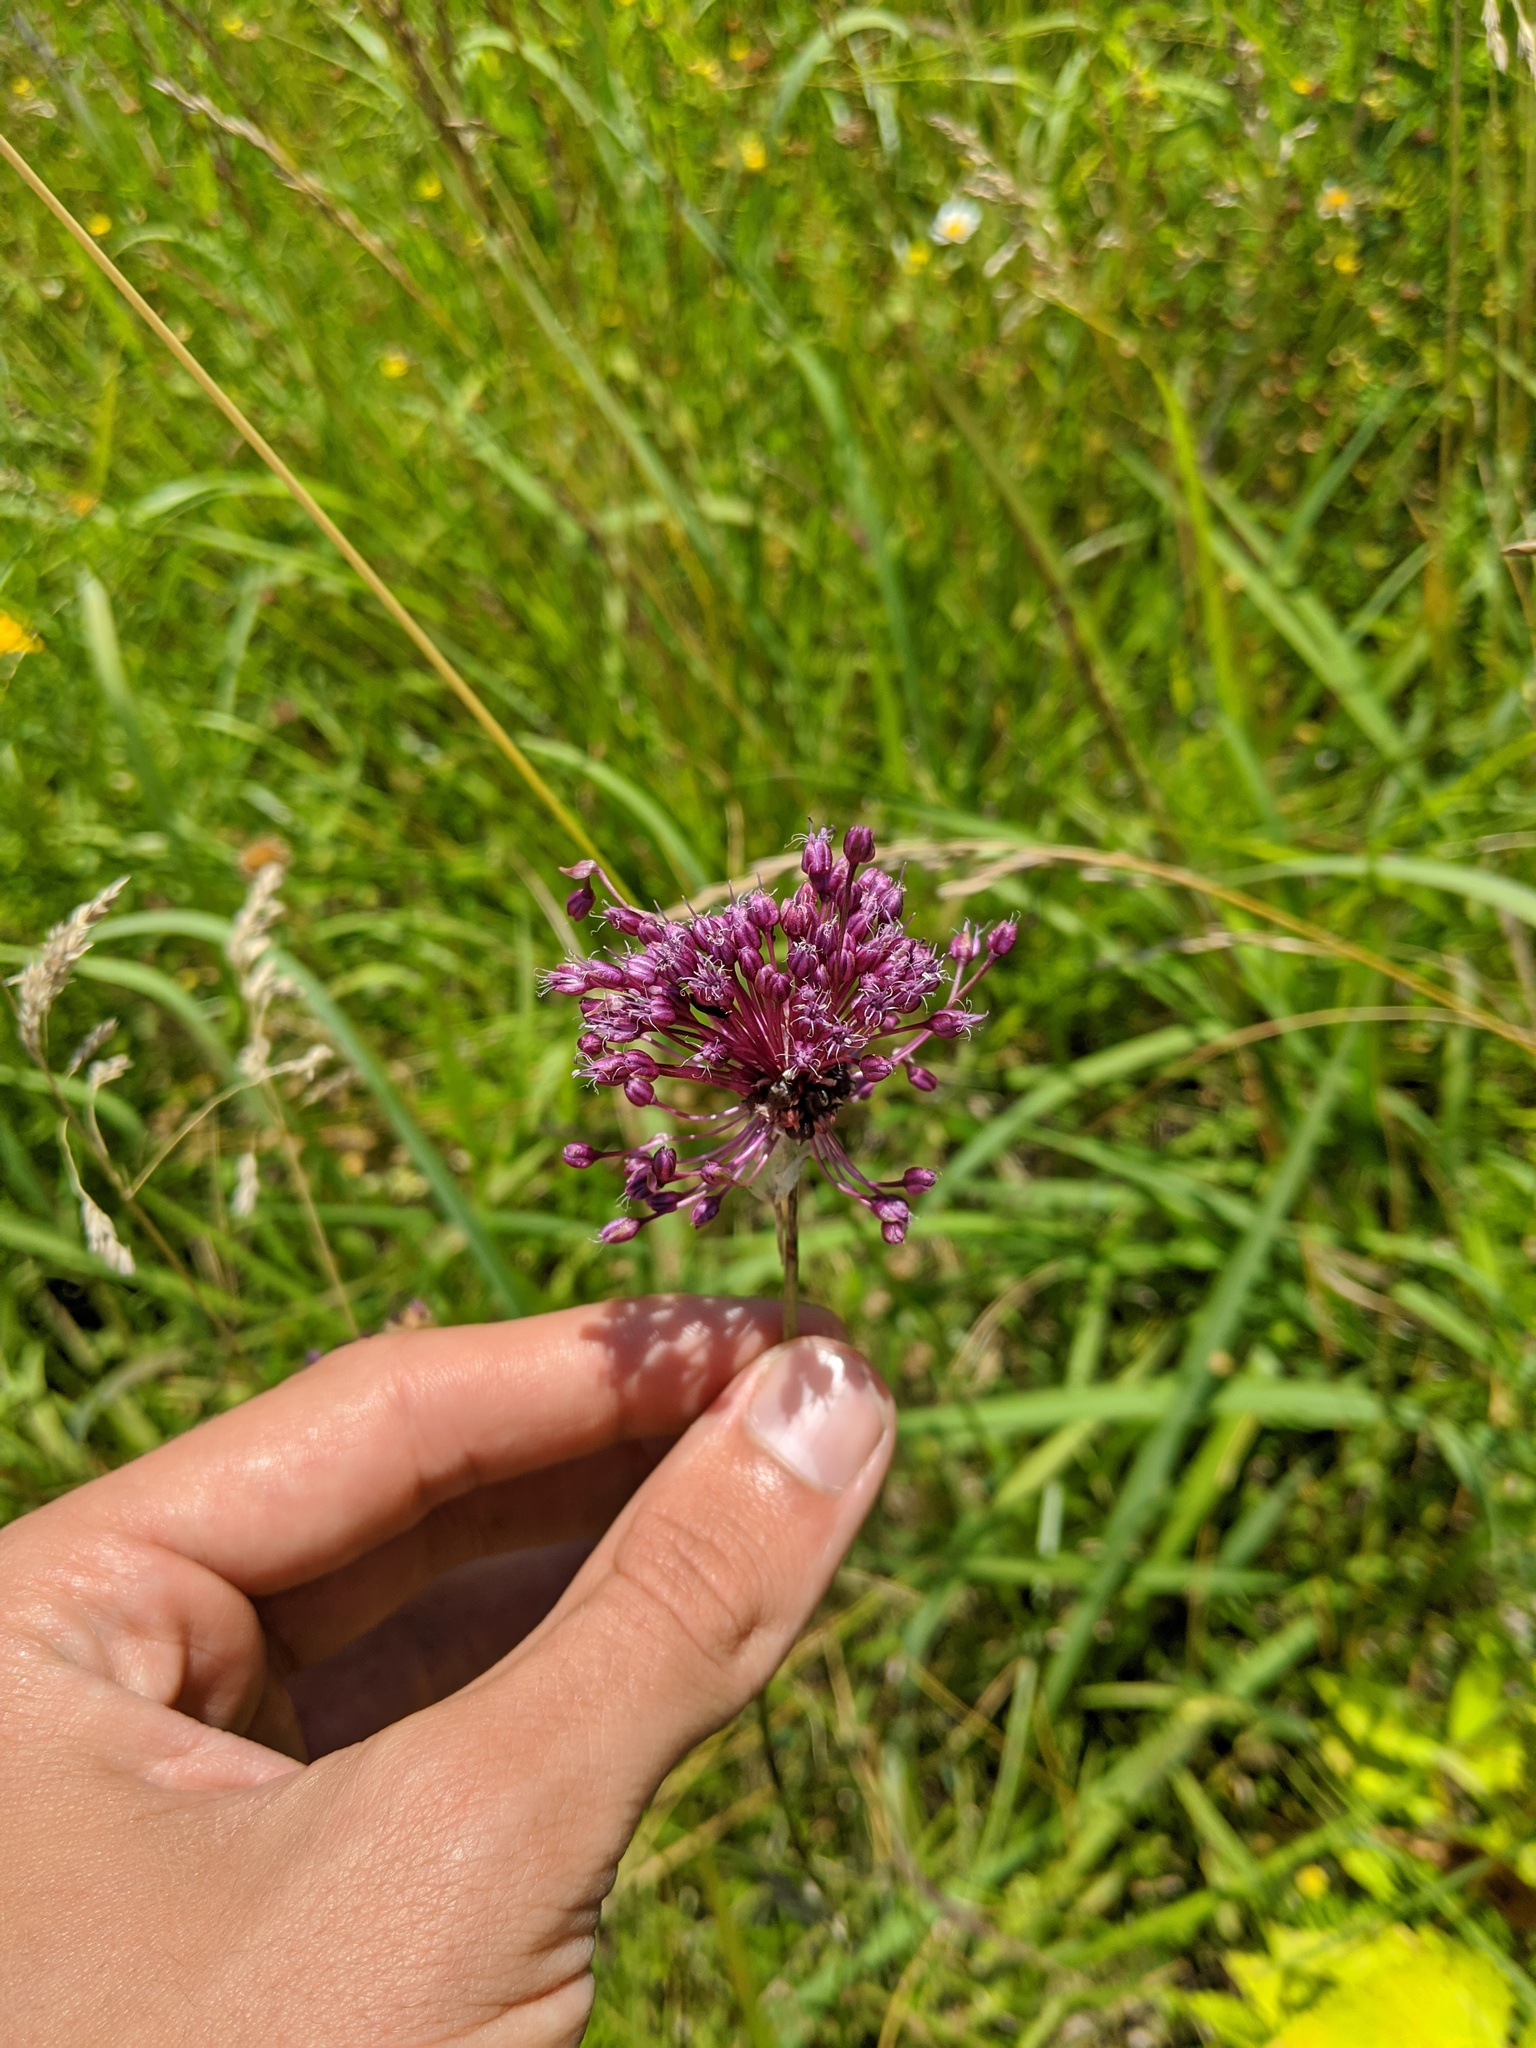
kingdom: Plantae
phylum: Tracheophyta
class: Liliopsida
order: Asparagales
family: Amaryllidaceae
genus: Allium
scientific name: Allium vineale
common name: Crow garlic
